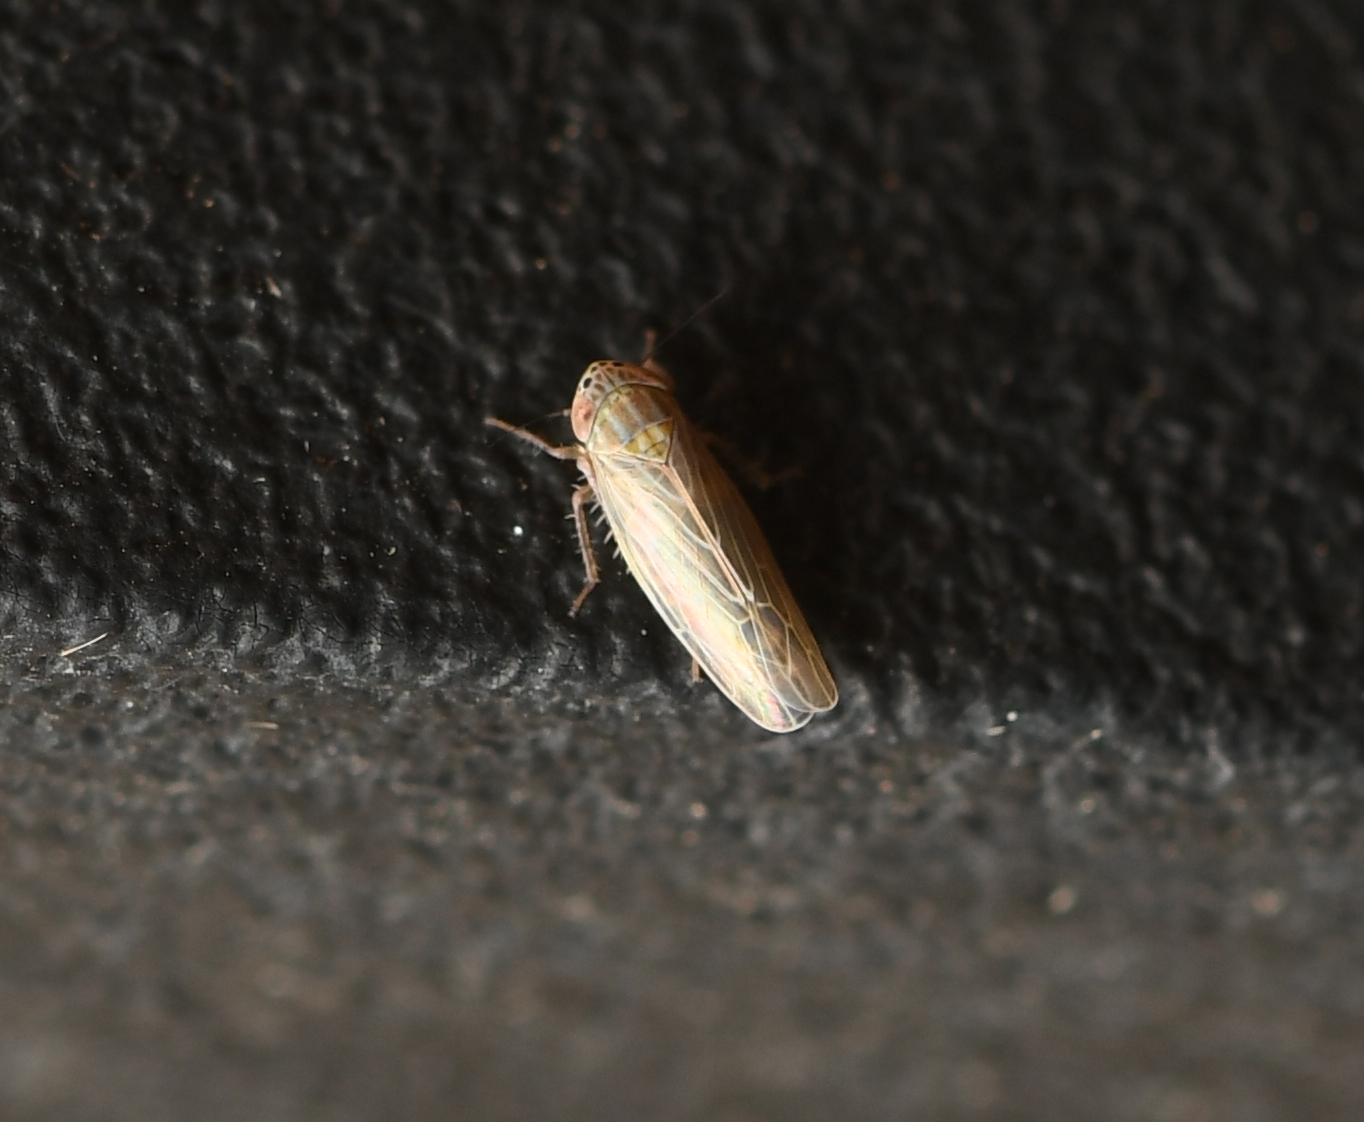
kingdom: Animalia
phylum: Arthropoda
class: Insecta
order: Hemiptera
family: Cicadellidae
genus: Graminella
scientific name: Graminella sonora
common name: Lesser lawn leafhopper
